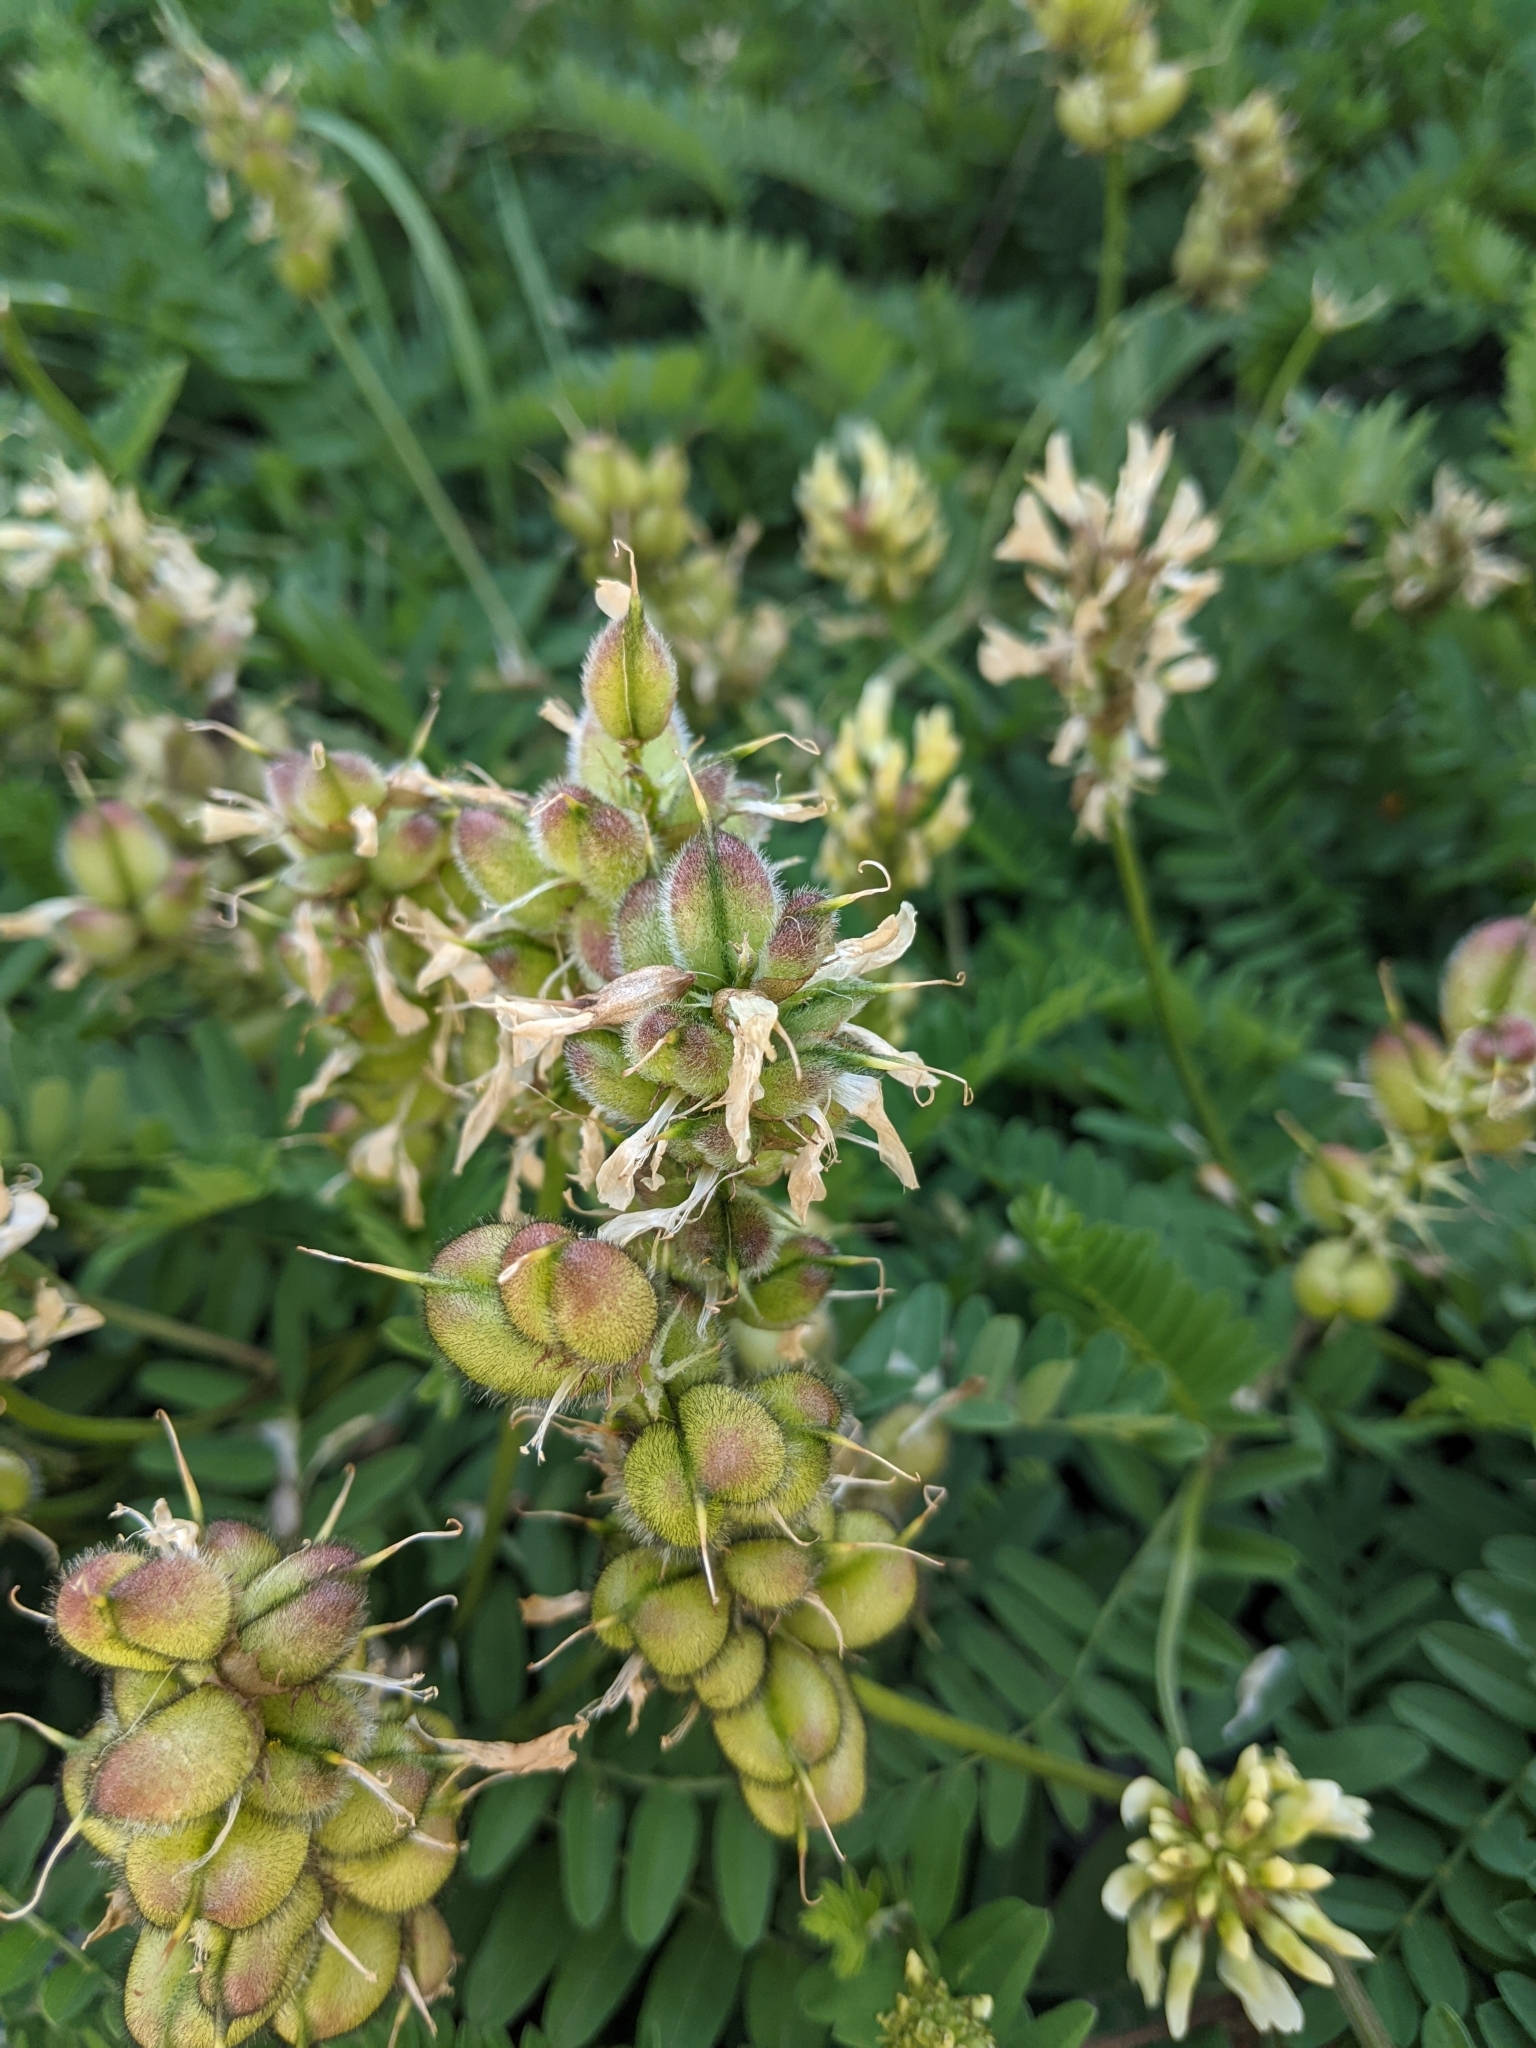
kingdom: Plantae
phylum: Tracheophyta
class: Magnoliopsida
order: Fabales
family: Fabaceae
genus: Astragalus
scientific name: Astragalus cicer
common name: Chick-pea milk-vetch
